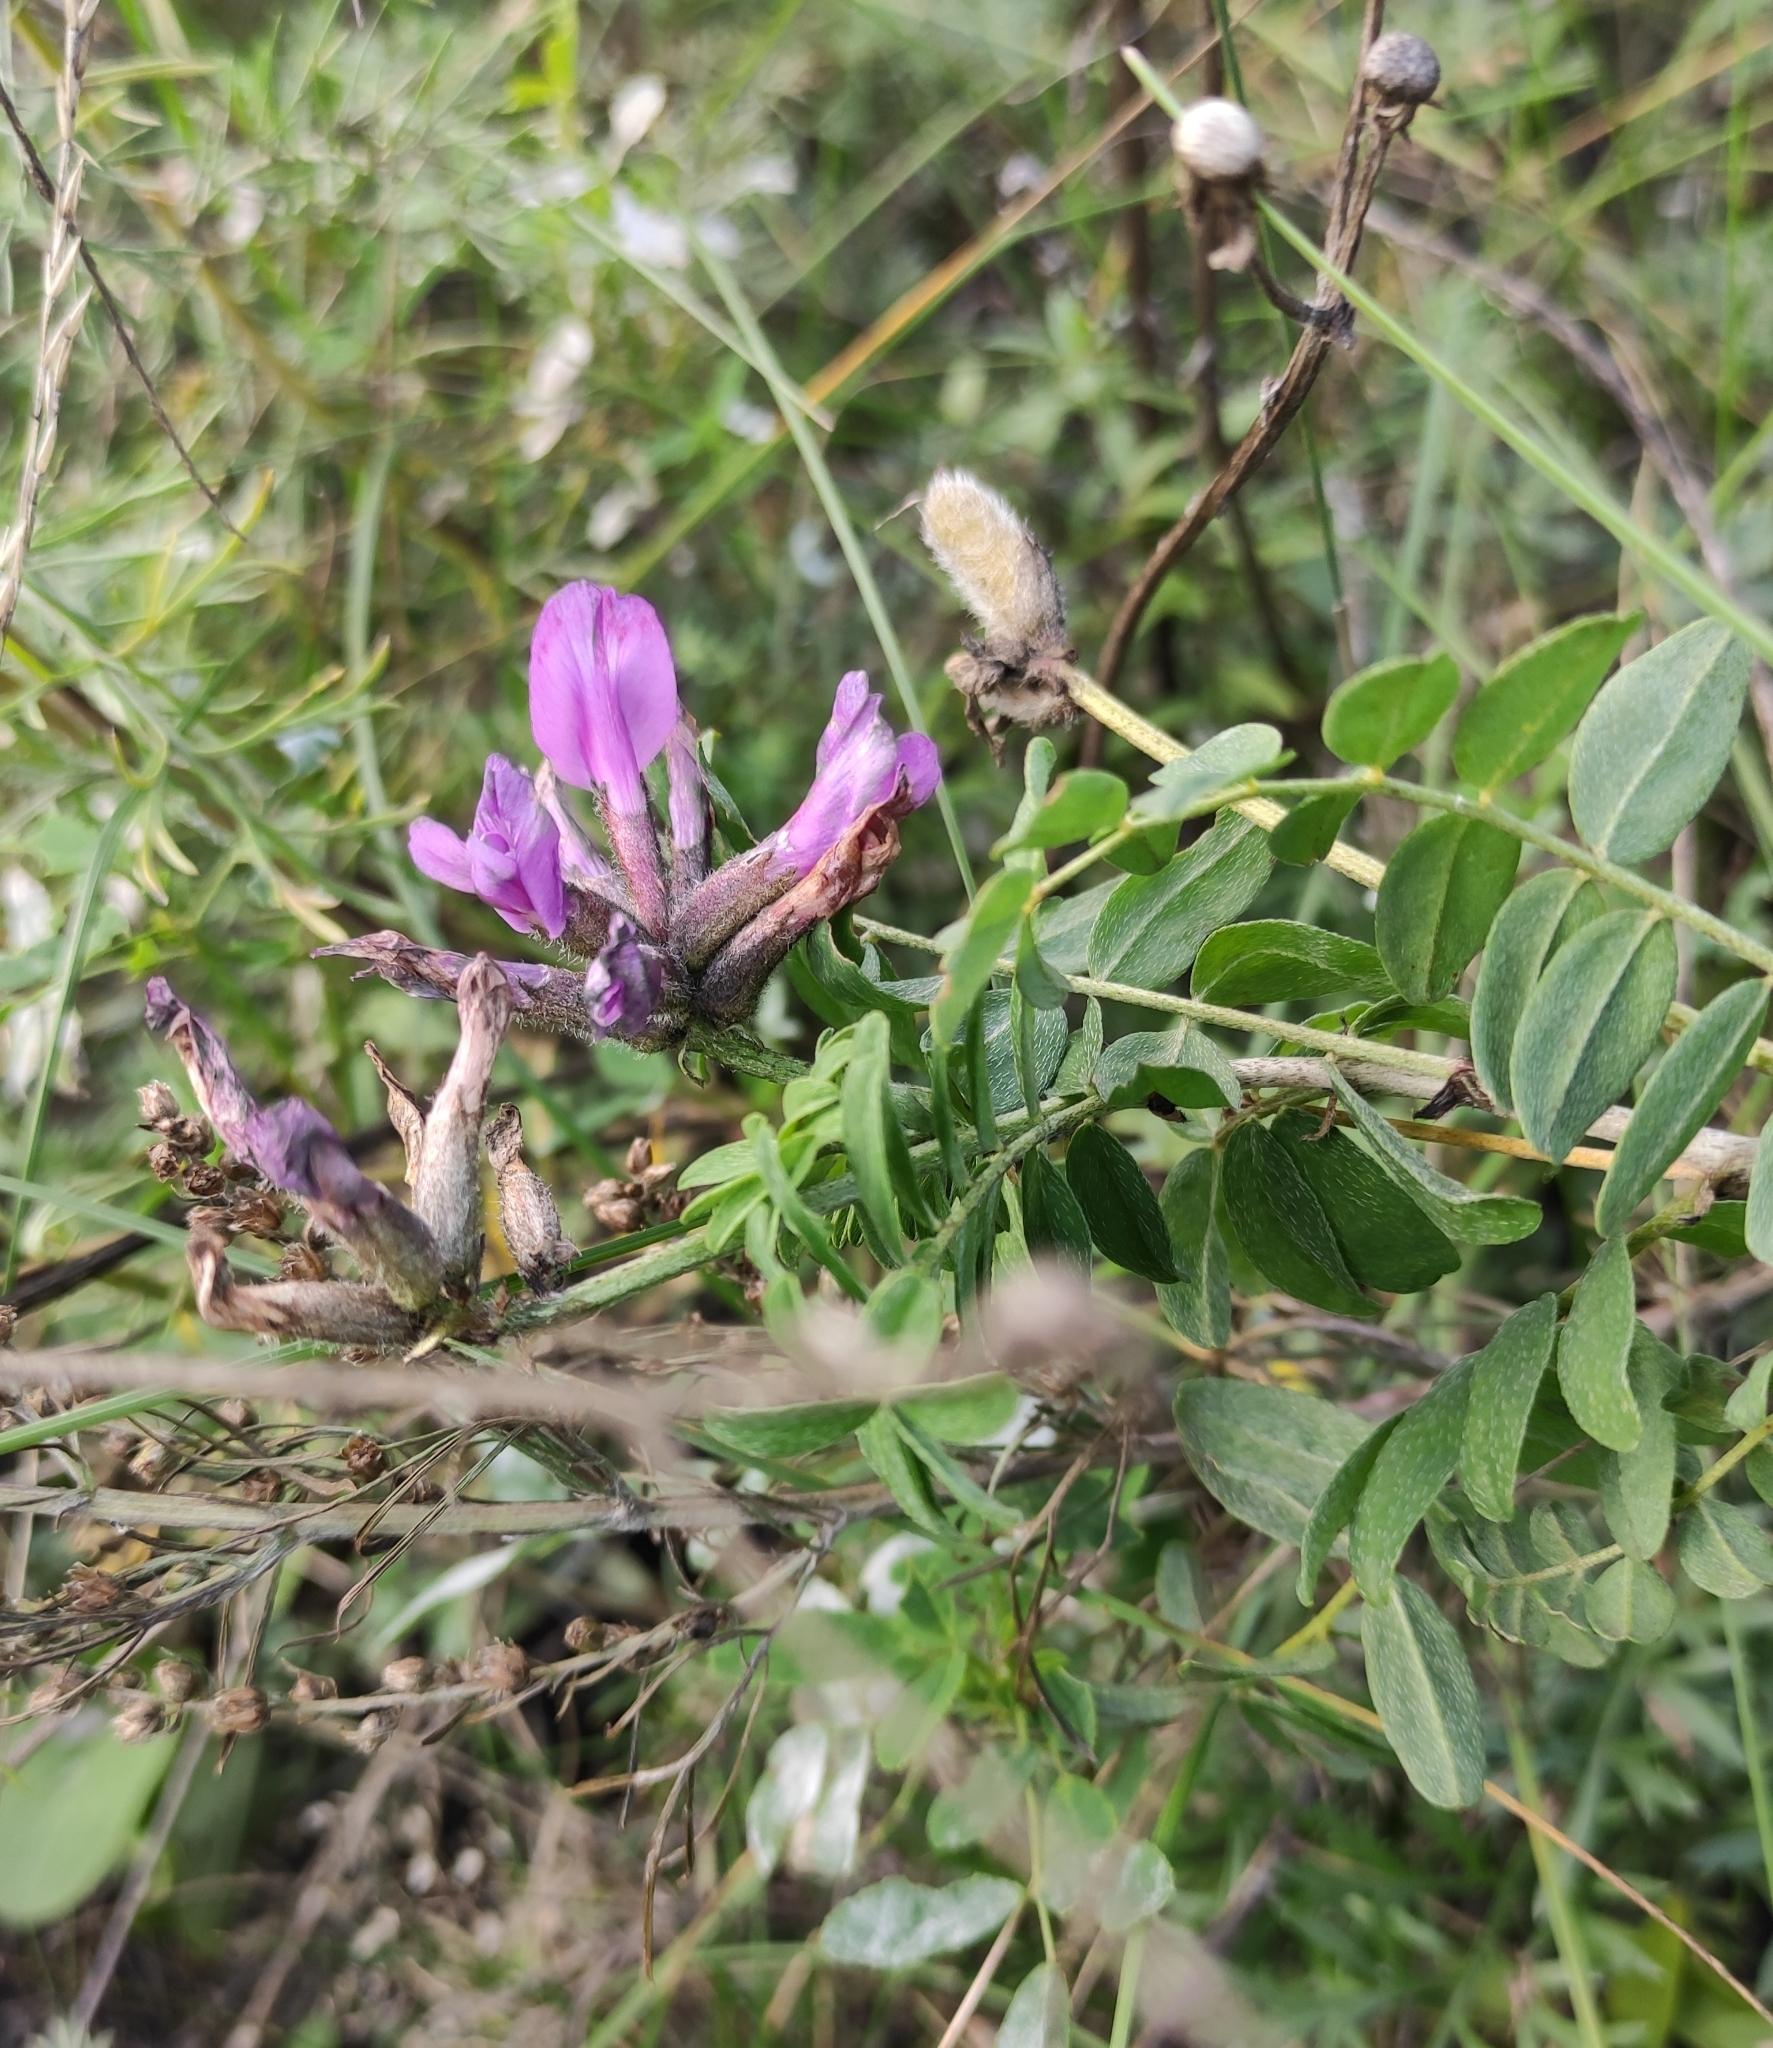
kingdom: Plantae
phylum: Tracheophyta
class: Magnoliopsida
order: Fabales
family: Fabaceae
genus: Astragalus
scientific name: Astragalus syriacus
